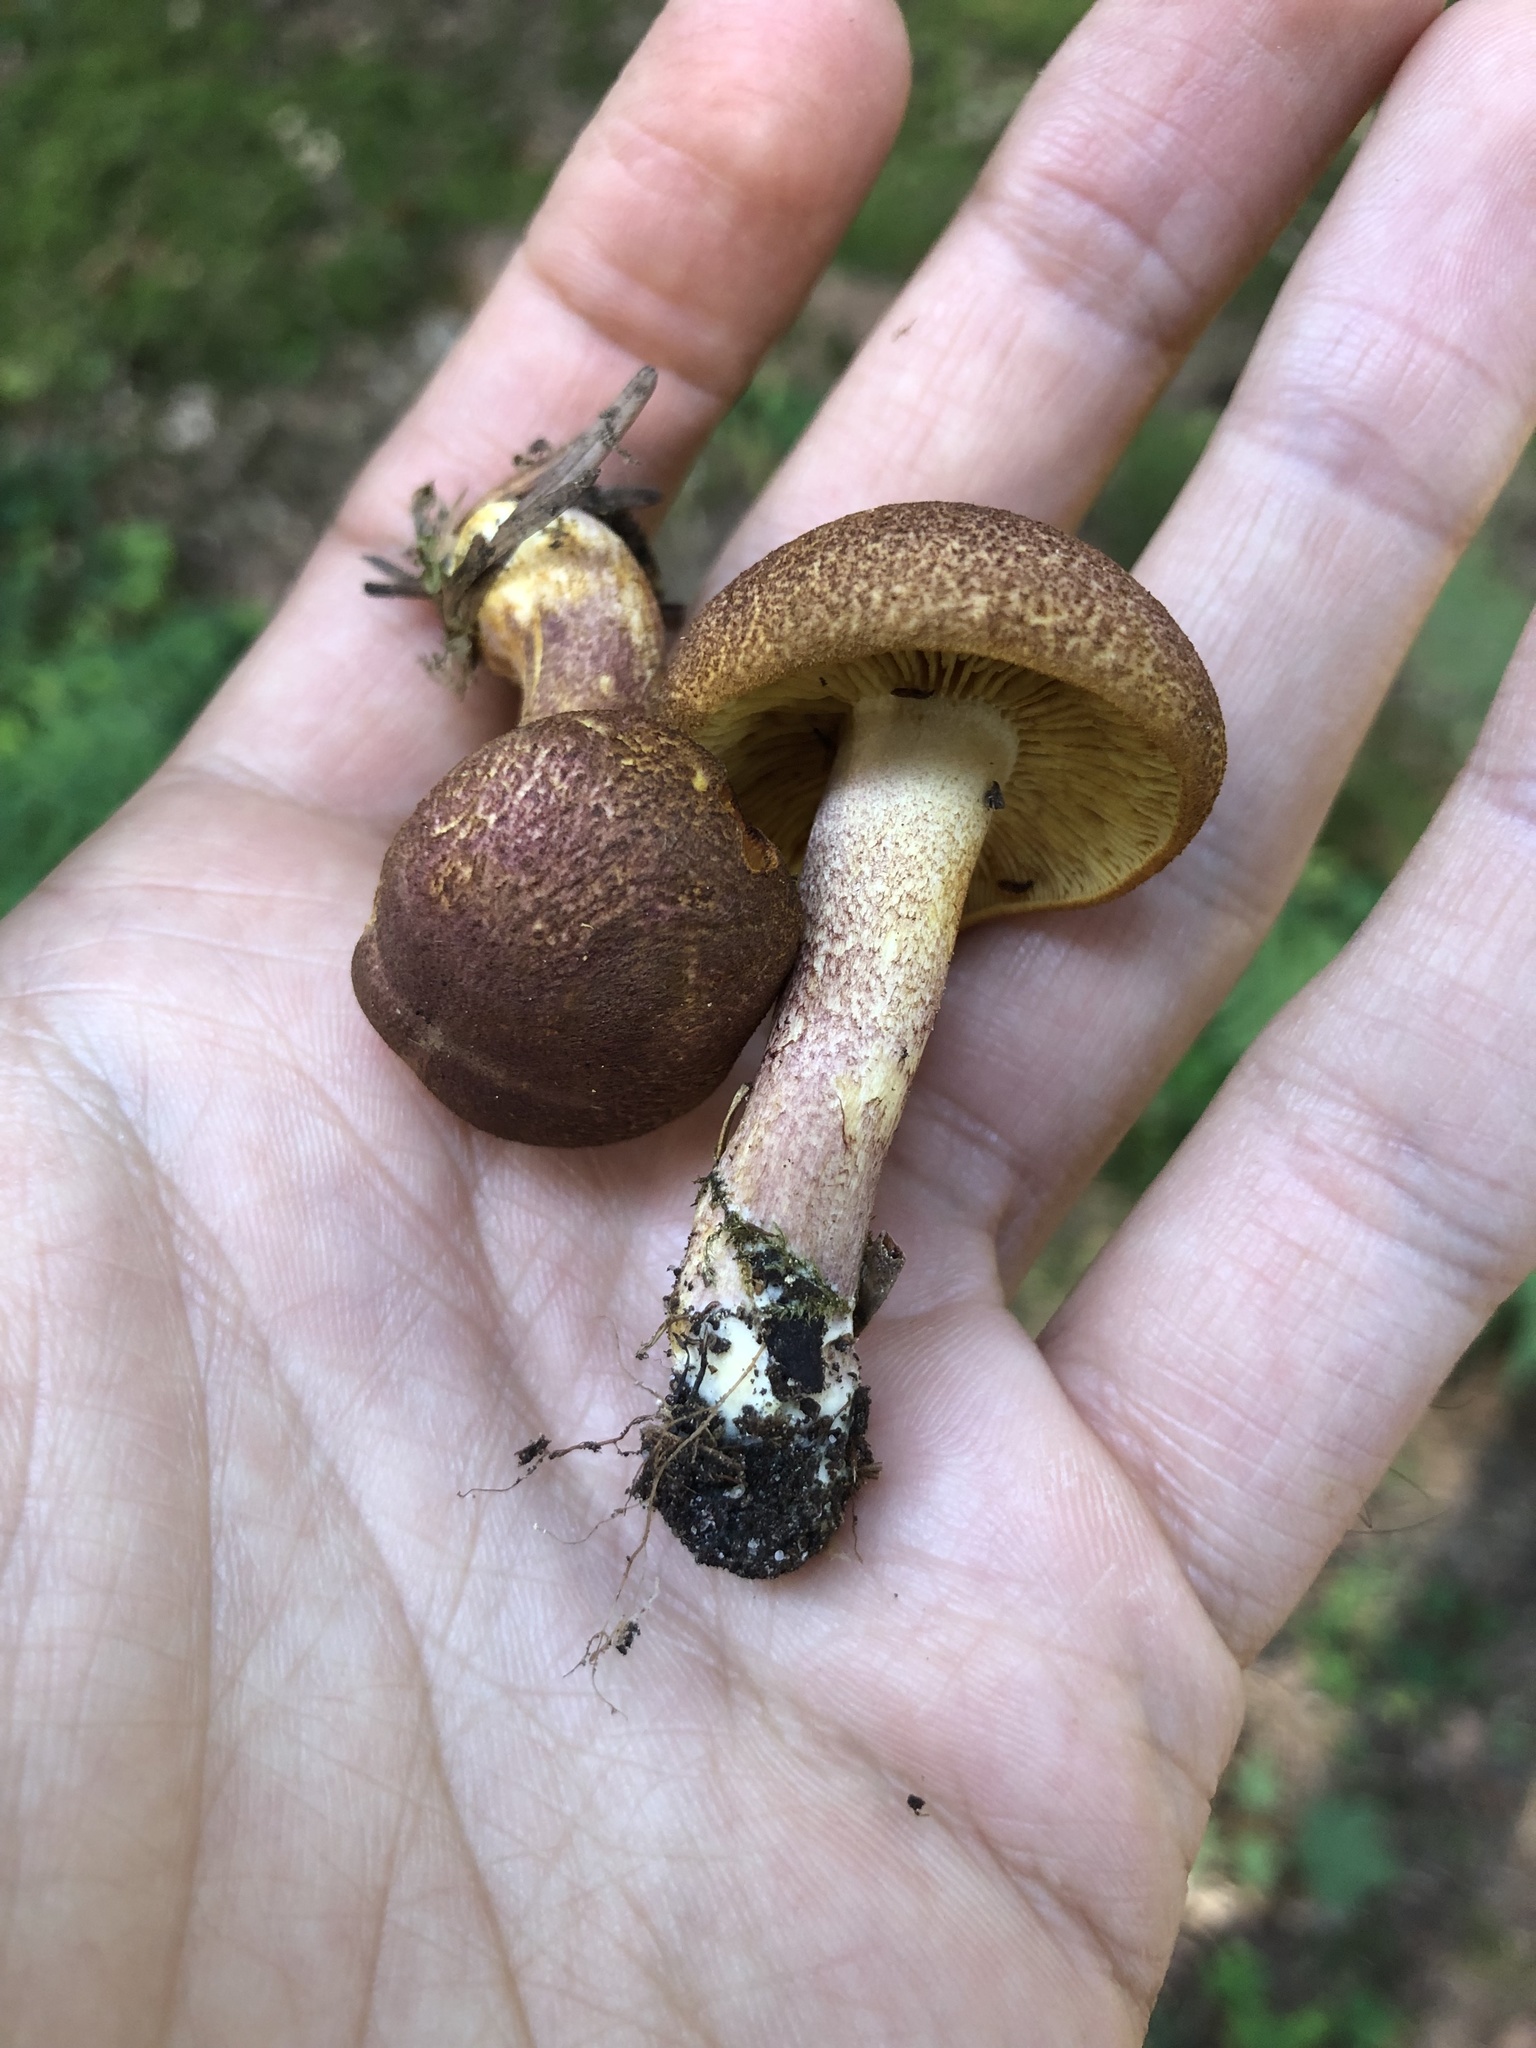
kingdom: Fungi
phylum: Basidiomycota
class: Agaricomycetes
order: Agaricales
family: Tricholomataceae
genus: Tricholomopsis
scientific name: Tricholomopsis rutilans
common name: Plums and custard
